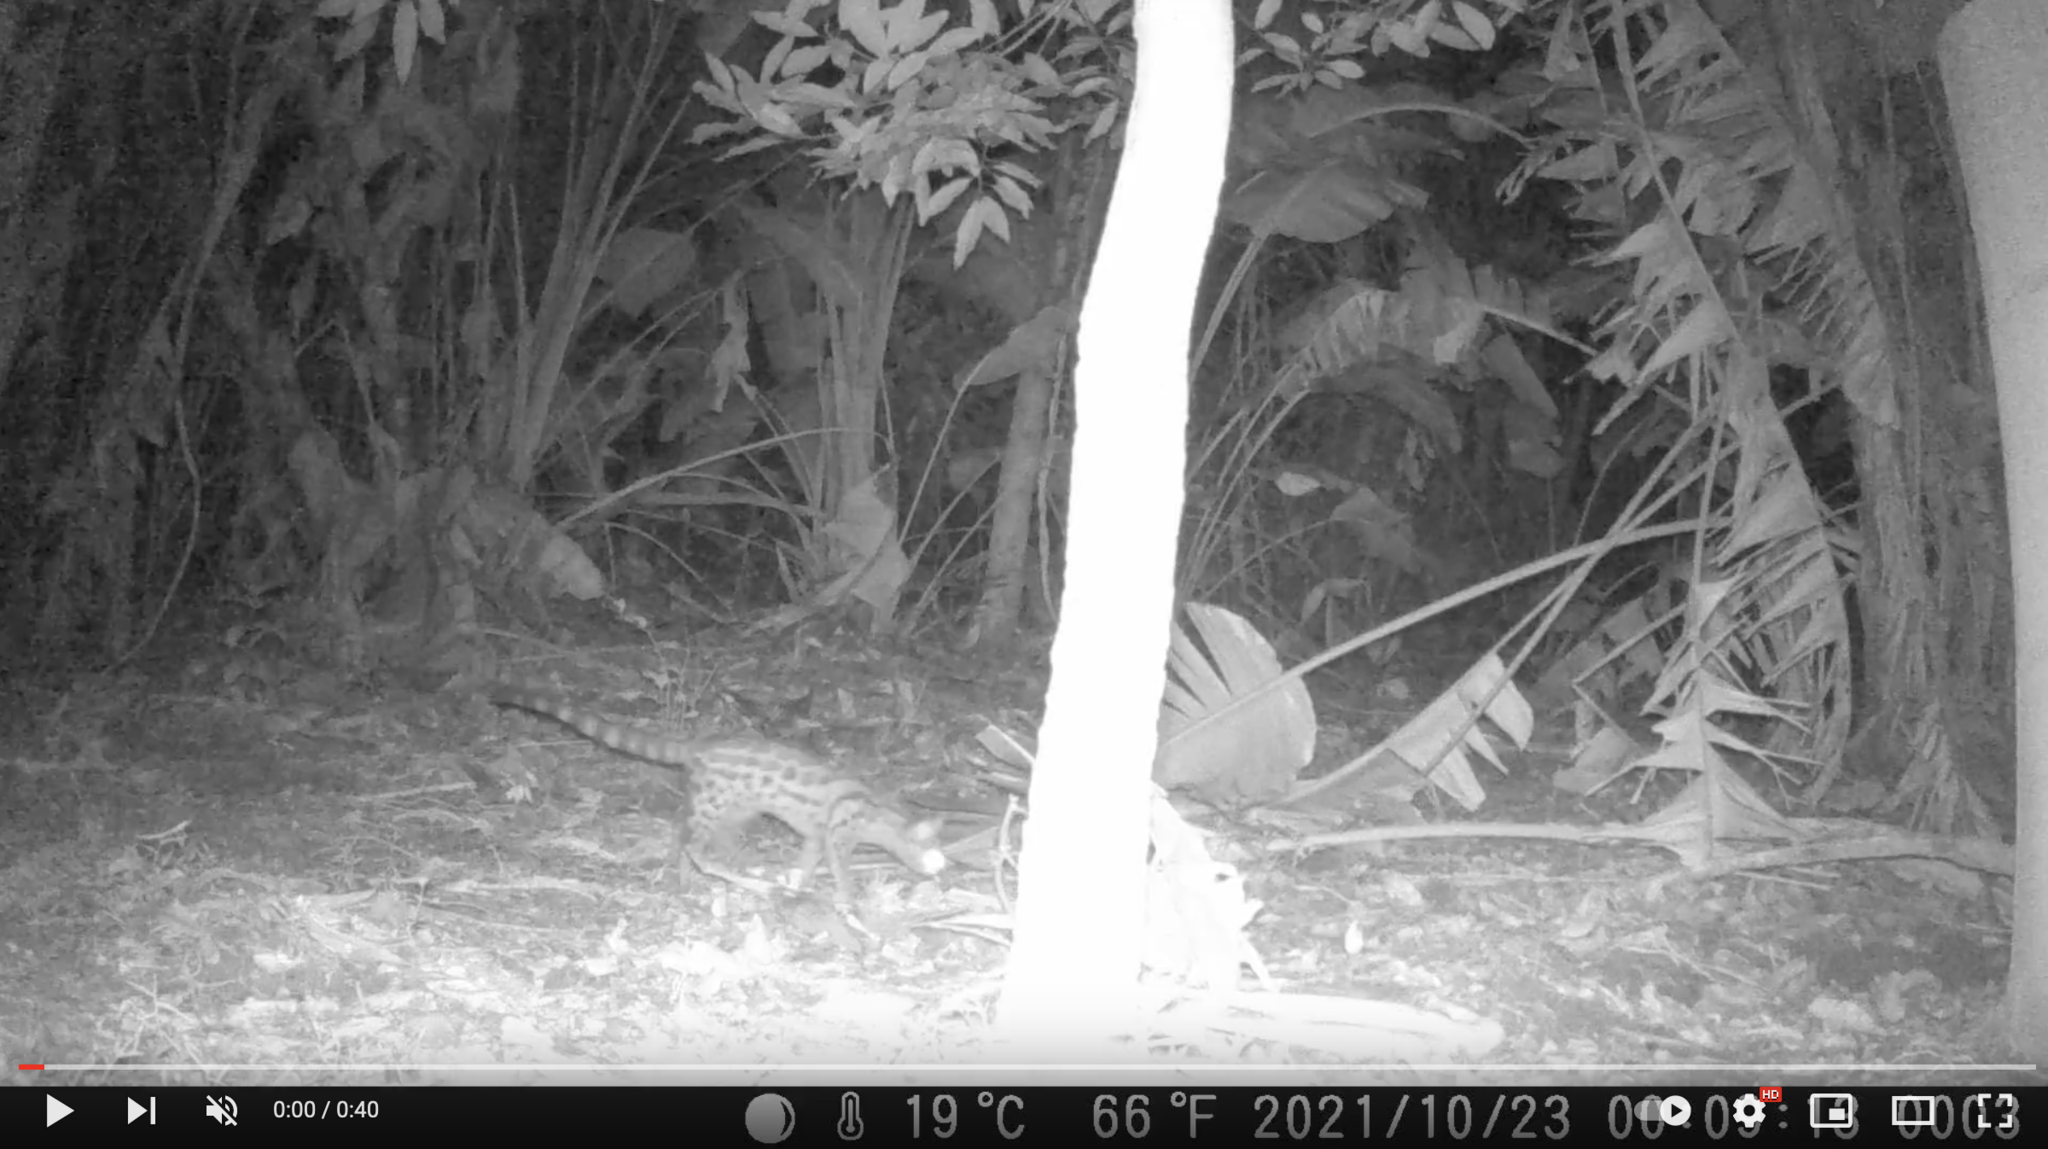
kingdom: Animalia
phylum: Chordata
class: Mammalia
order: Carnivora
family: Viverridae
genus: Genetta
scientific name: Genetta maculata
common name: Rusty-spotted genet
